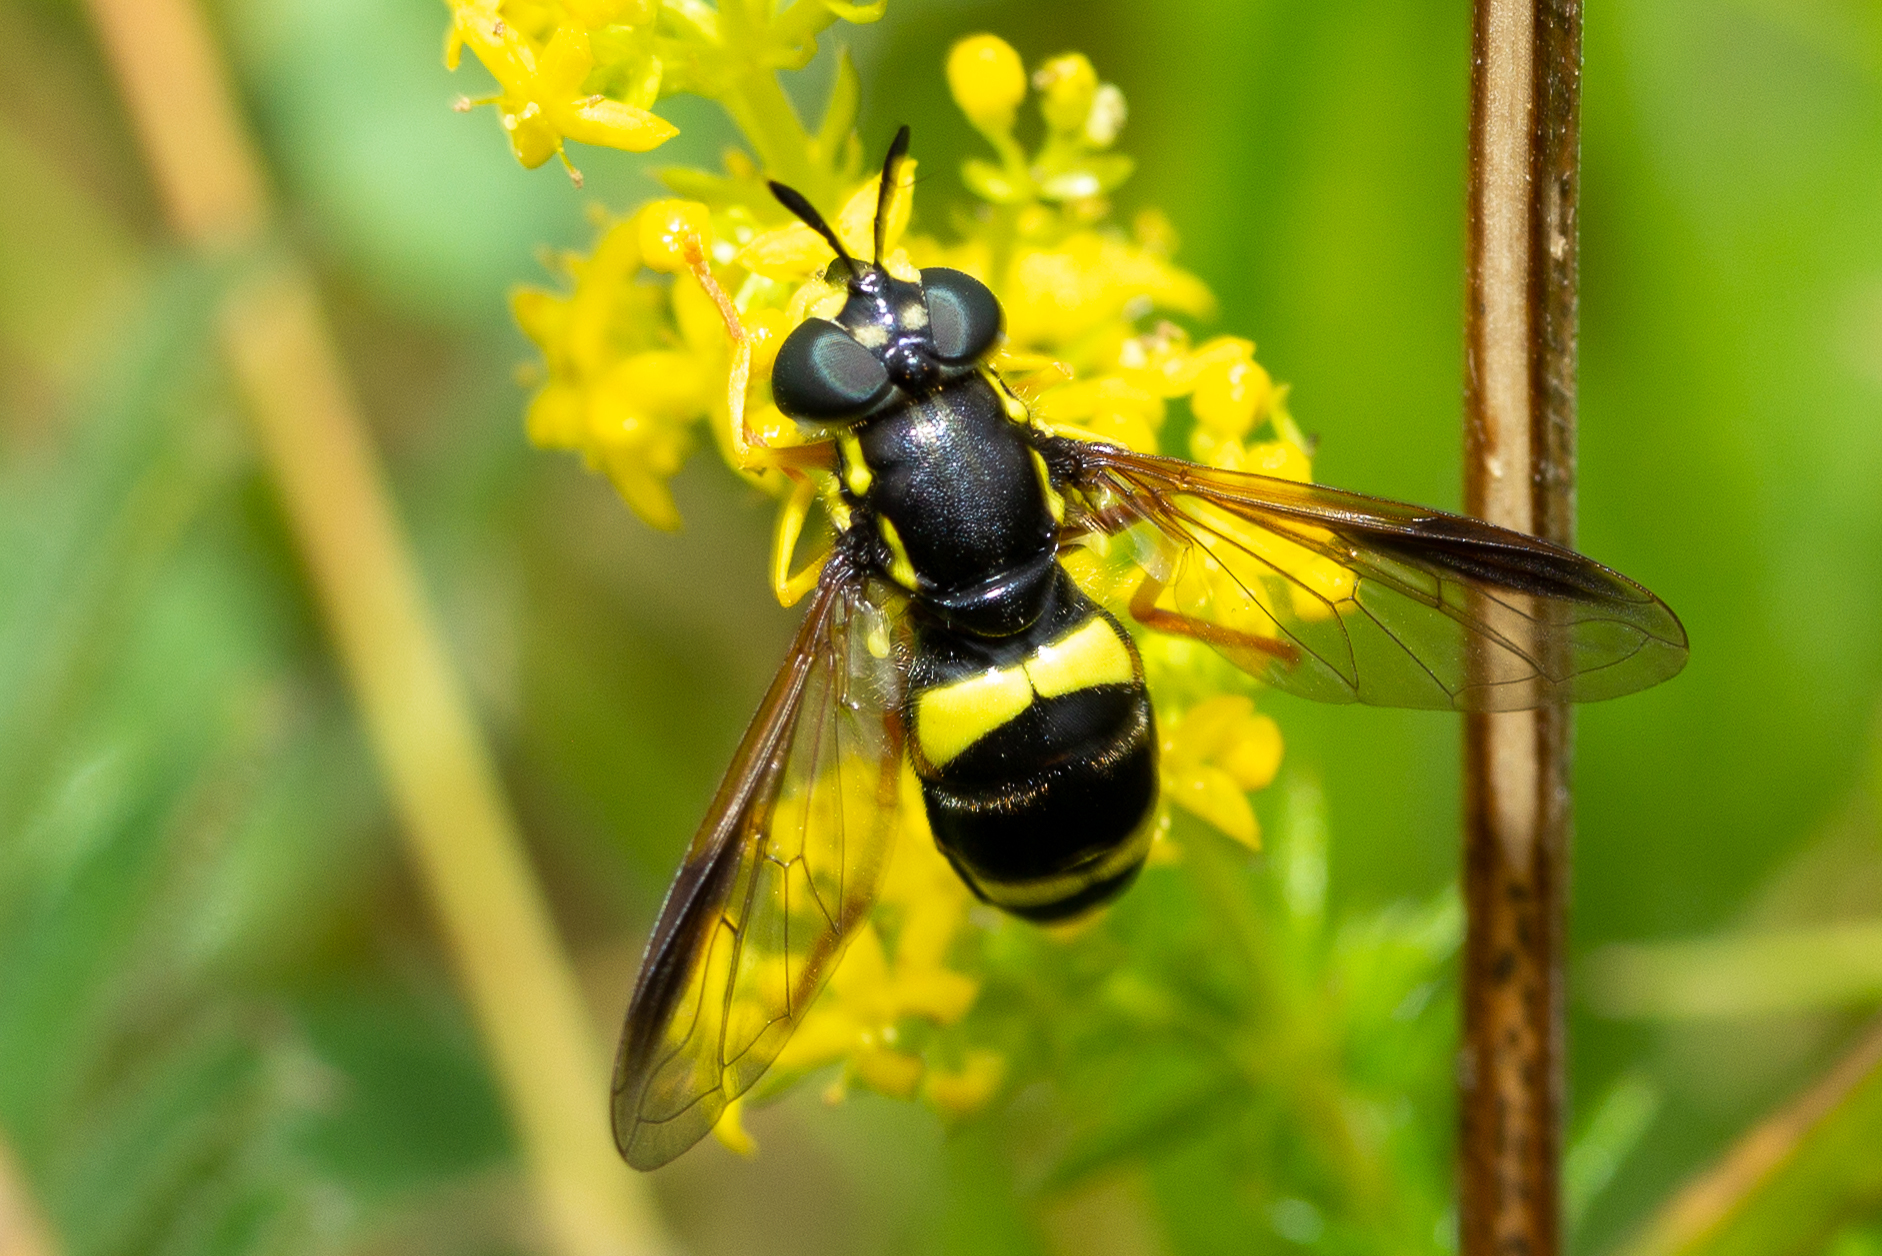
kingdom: Animalia
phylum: Arthropoda
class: Insecta
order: Diptera
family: Syrphidae
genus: Chrysotoxum
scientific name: Chrysotoxum bicincta
